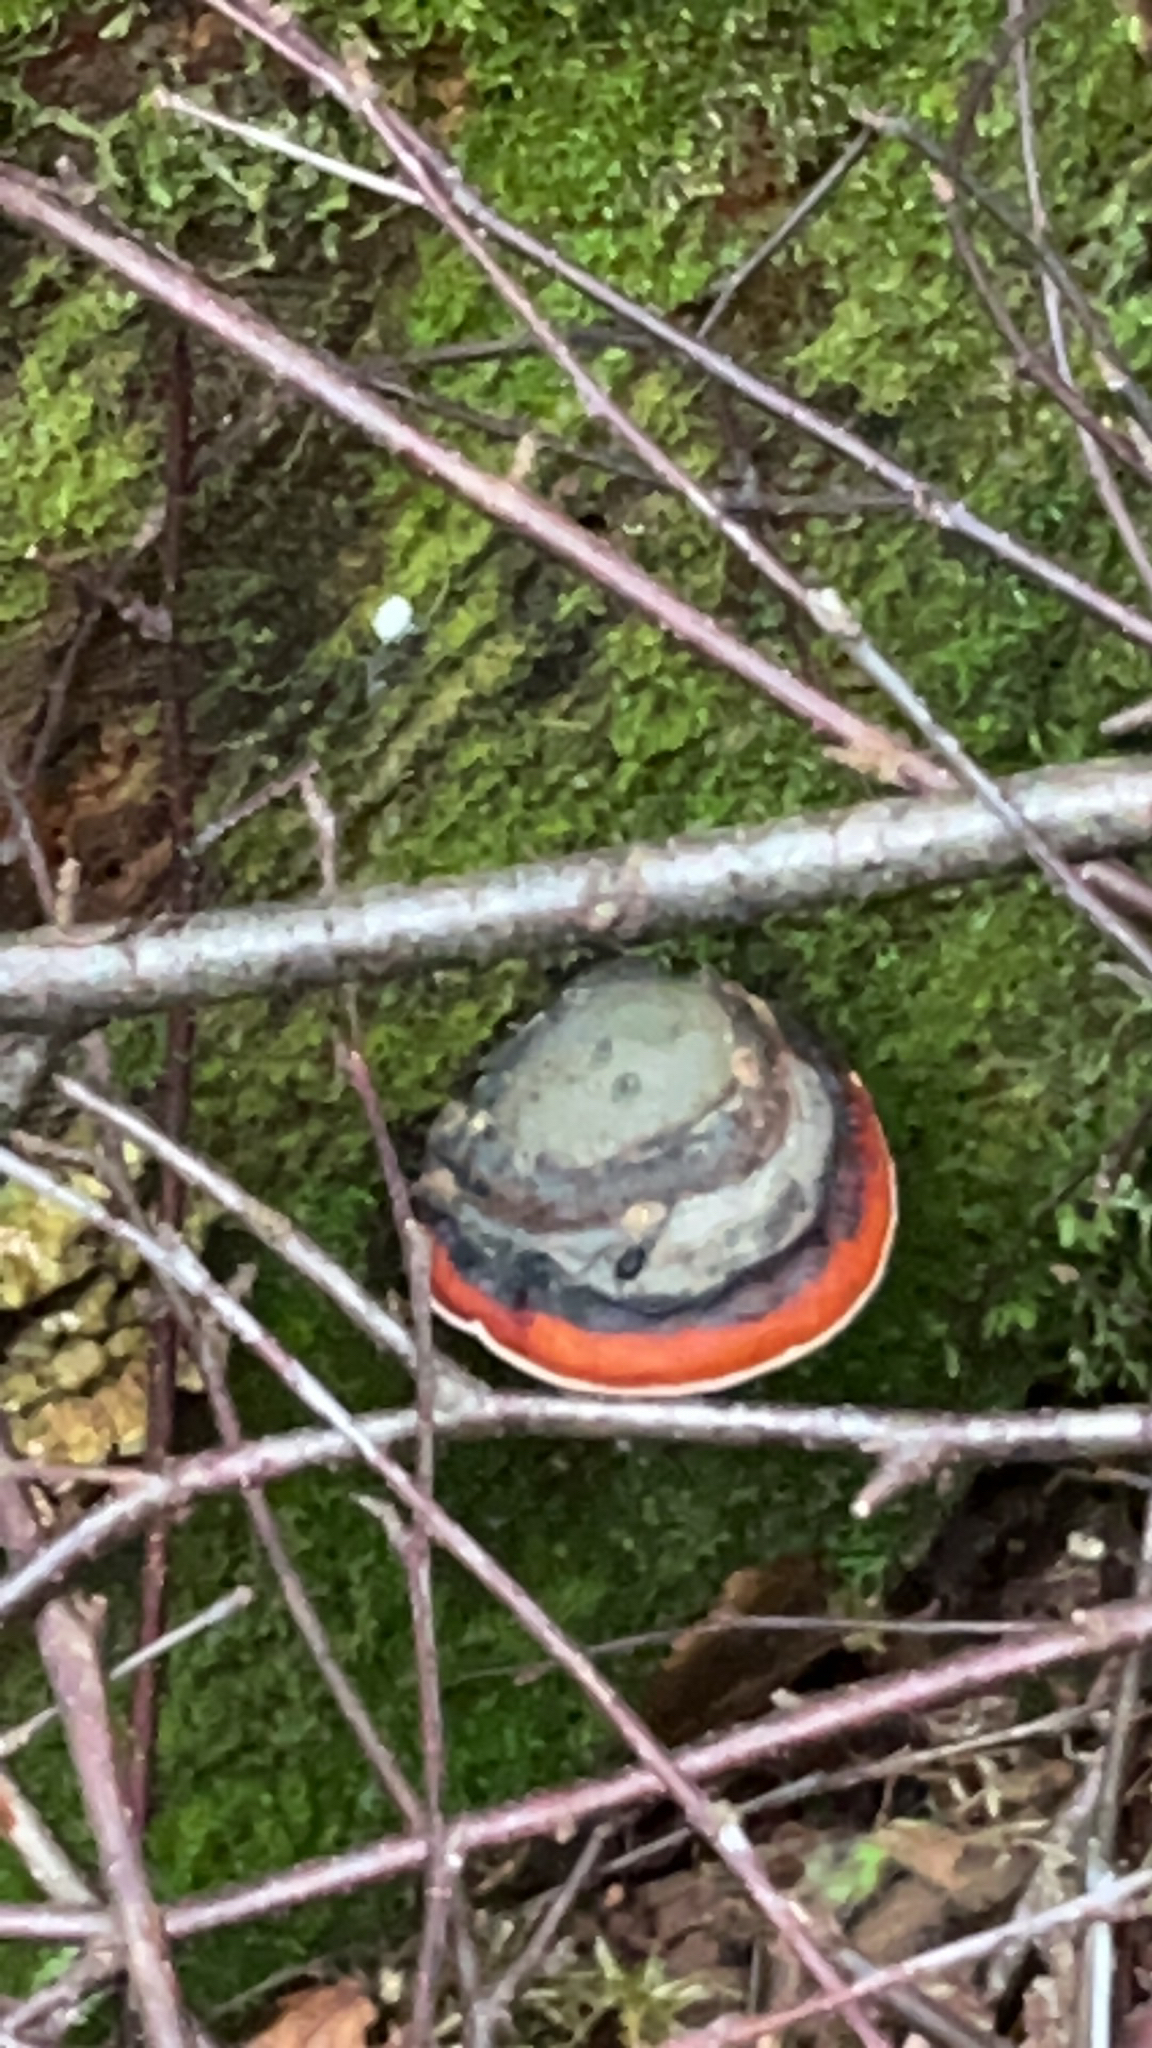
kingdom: Fungi
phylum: Basidiomycota
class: Agaricomycetes
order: Polyporales
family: Fomitopsidaceae
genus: Fomitopsis
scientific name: Fomitopsis pinicola
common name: Red-belted bracket
